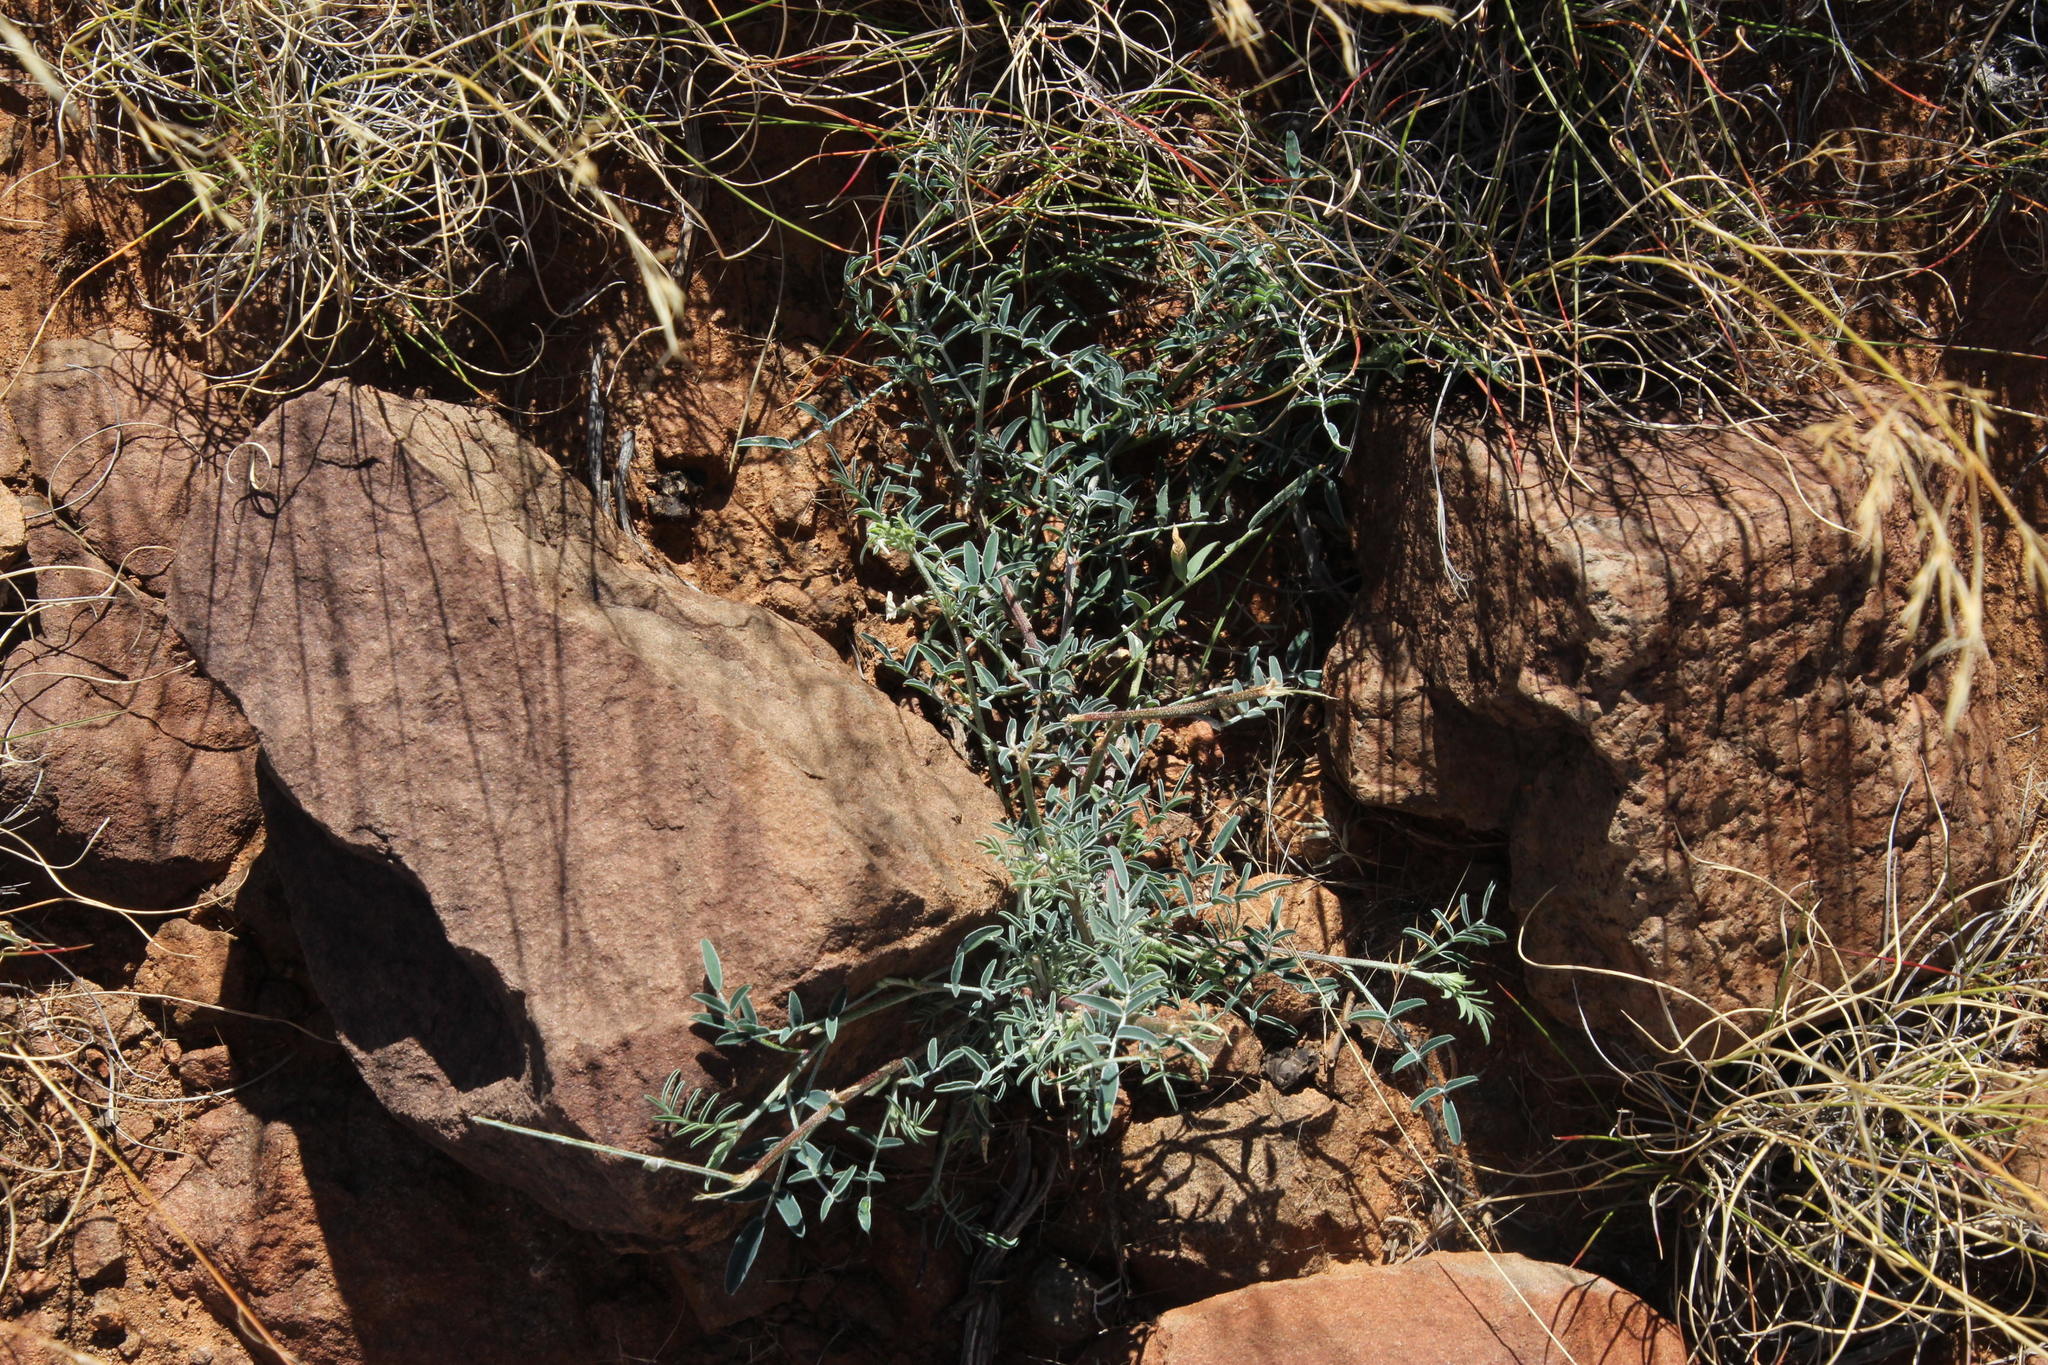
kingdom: Plantae
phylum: Tracheophyta
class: Magnoliopsida
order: Fabales
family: Fabaceae
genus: Lessertia
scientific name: Lessertia frutescens
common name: Balloon-pea
